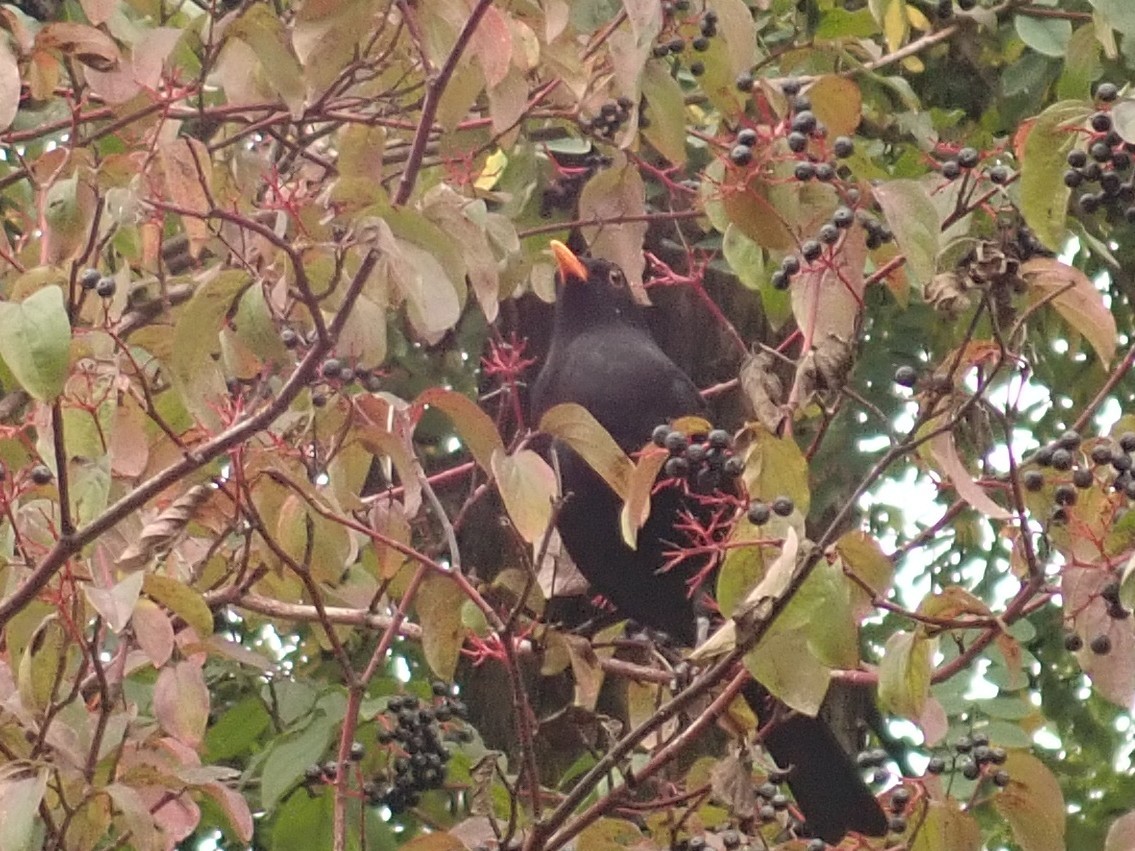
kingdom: Animalia
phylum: Chordata
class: Aves
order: Passeriformes
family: Turdidae
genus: Turdus
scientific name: Turdus merula
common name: Common blackbird
